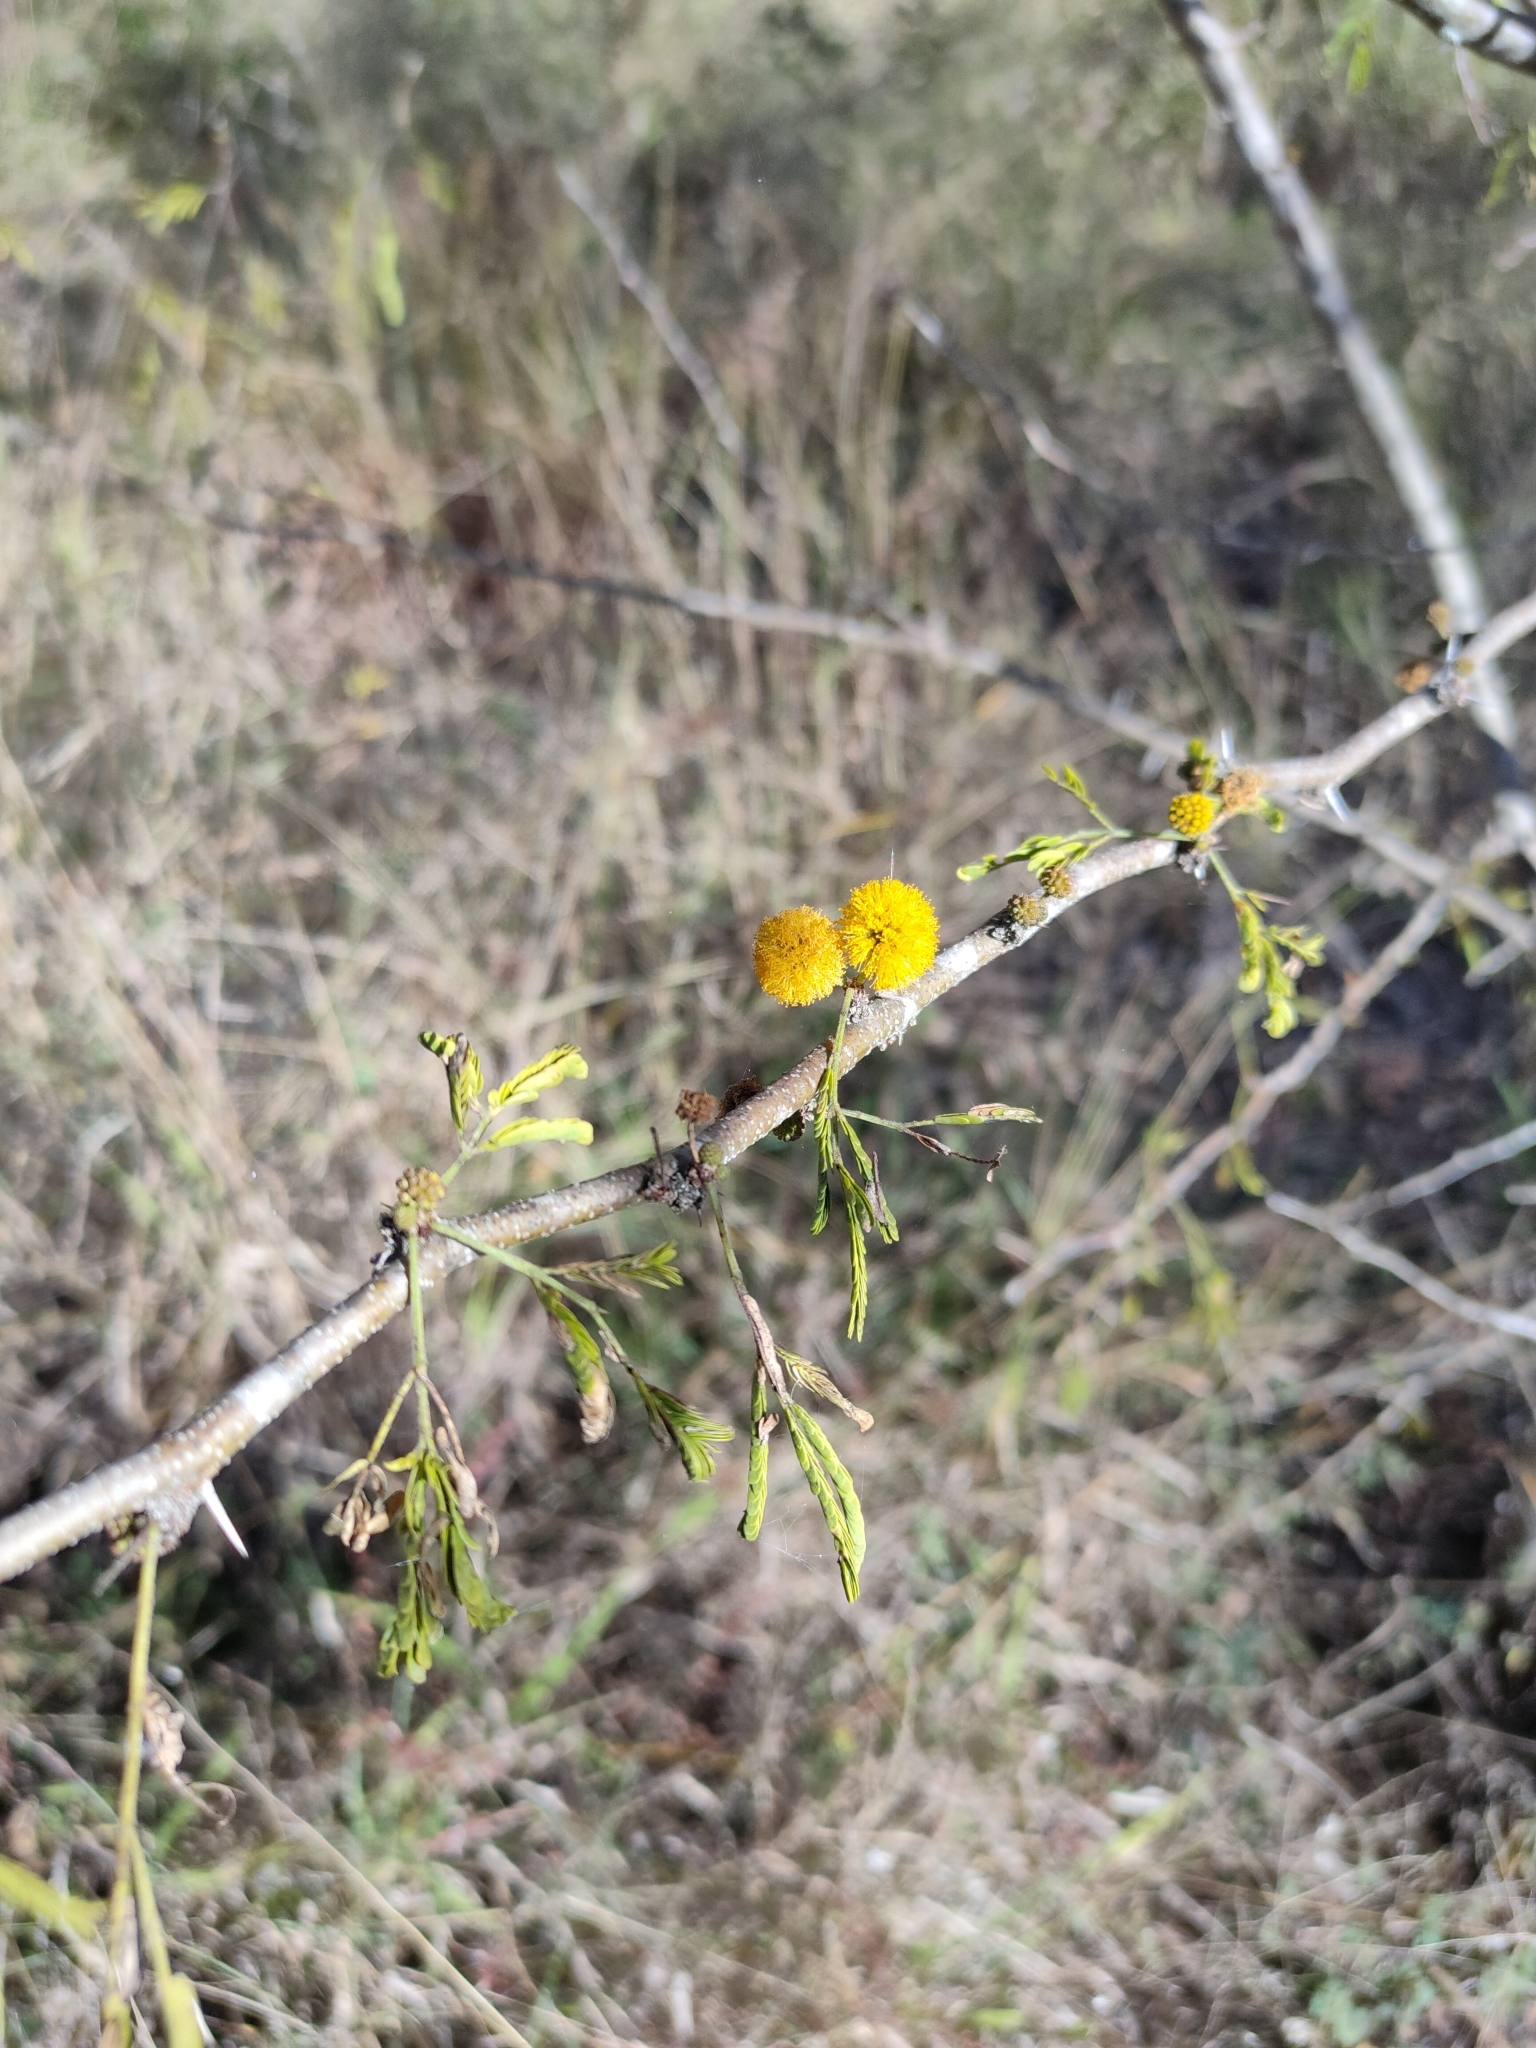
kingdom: Plantae
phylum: Tracheophyta
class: Magnoliopsida
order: Fabales
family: Fabaceae
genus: Vachellia
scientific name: Vachellia farnesiana
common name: Sweet acacia
